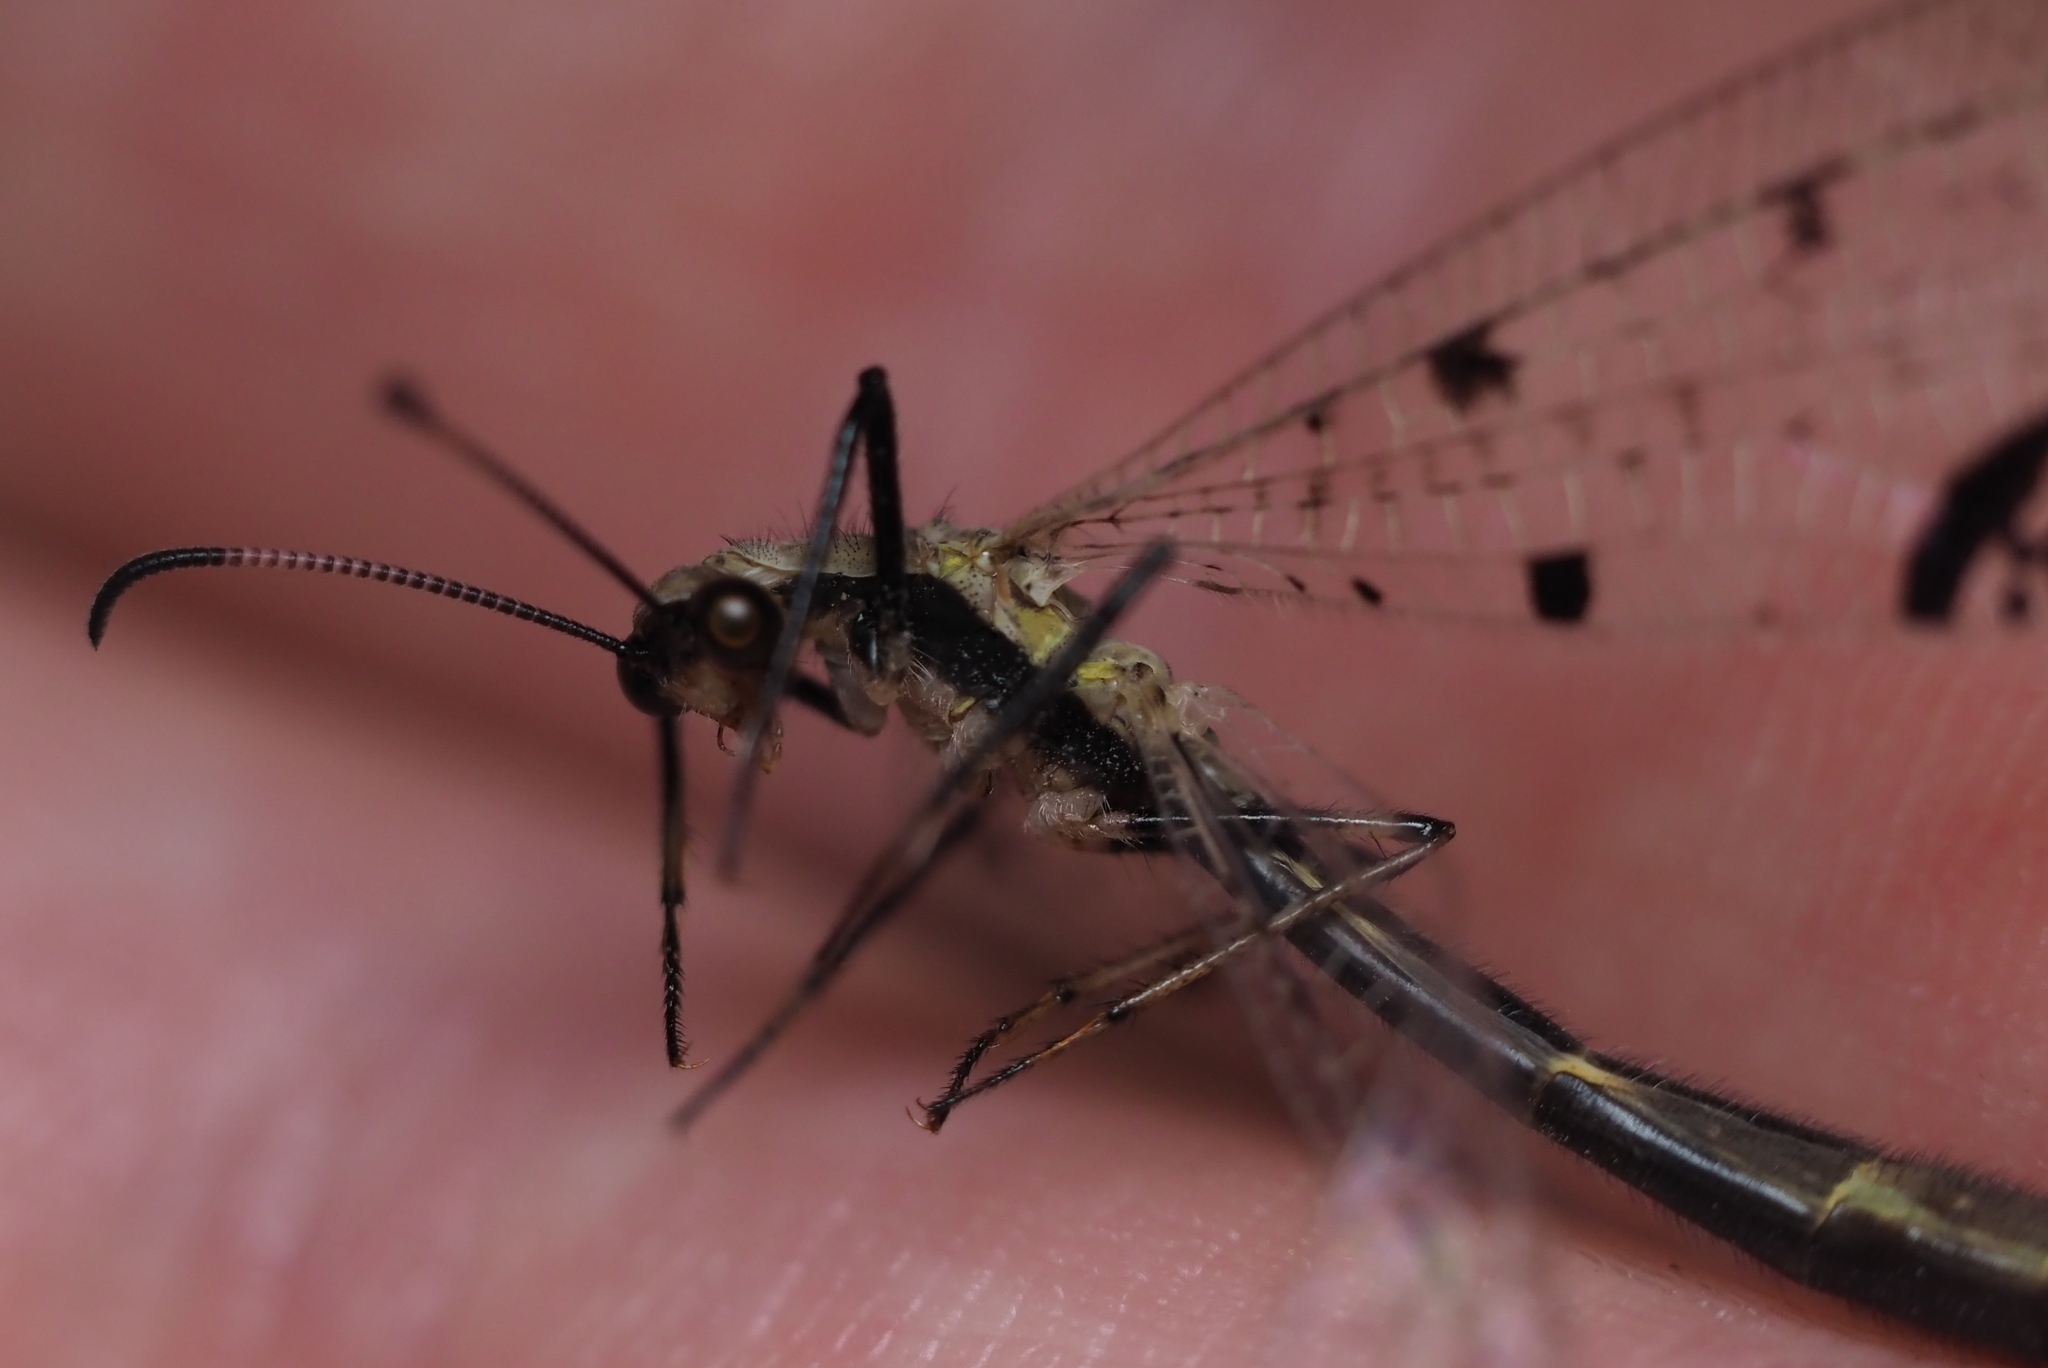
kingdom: Animalia
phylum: Arthropoda
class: Insecta
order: Neuroptera
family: Myrmeleontidae
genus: Dendroleon
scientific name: Dendroleon obsoletus
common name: Eastern spotted-winged antlion
